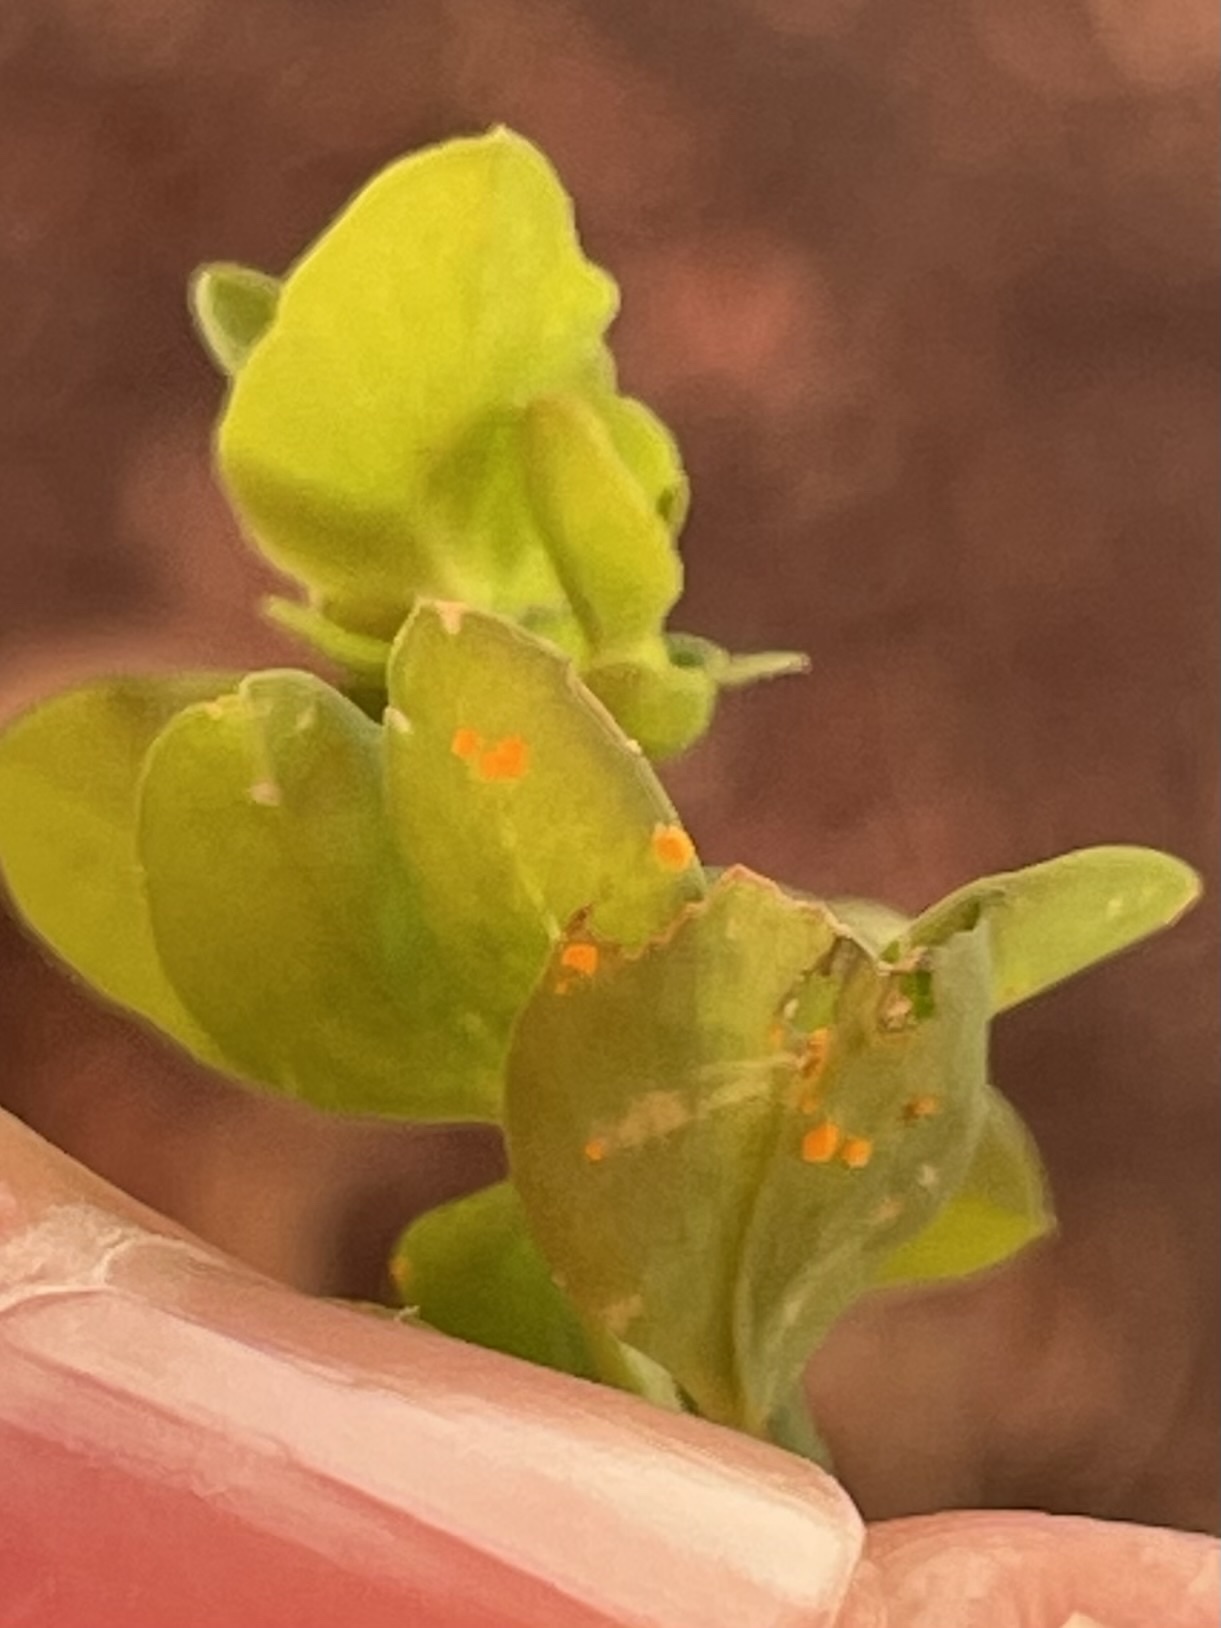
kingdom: Fungi
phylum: Basidiomycota
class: Pucciniomycetes
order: Pucciniales
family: Melampsoraceae
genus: Melampsora
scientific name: Melampsora euphorbiae
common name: Spurge rust
